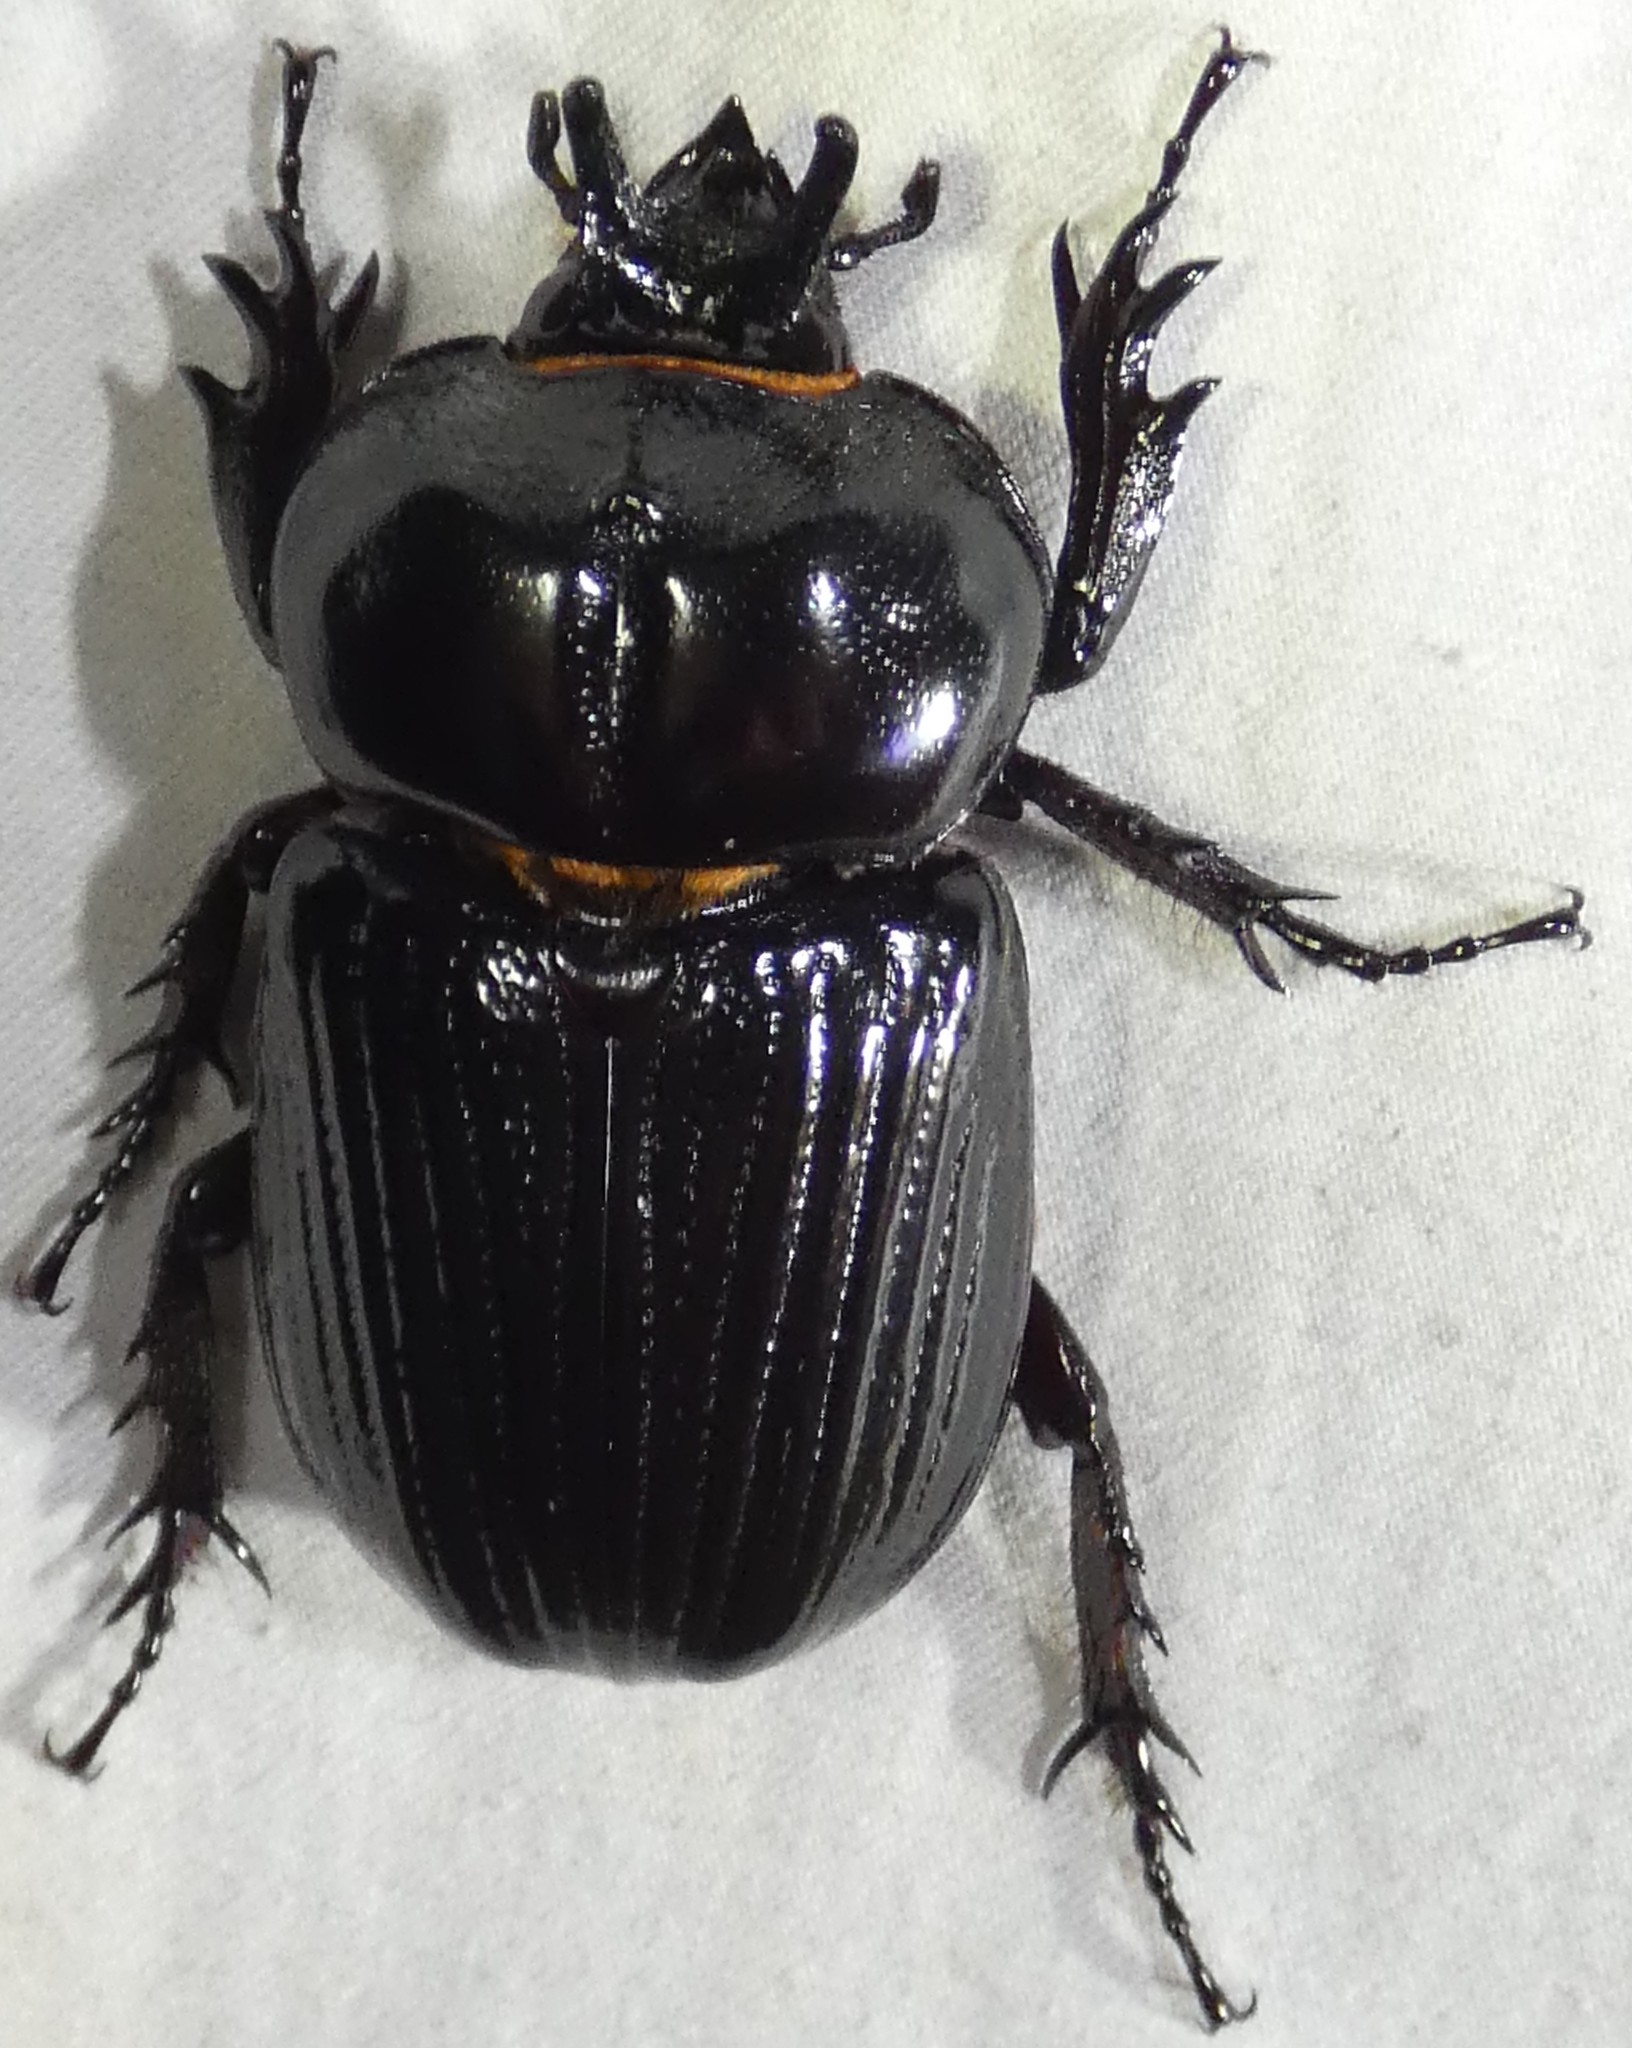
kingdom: Animalia
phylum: Arthropoda
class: Insecta
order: Coleoptera
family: Scarabaeidae
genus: Phileurus
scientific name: Phileurus truncatus
